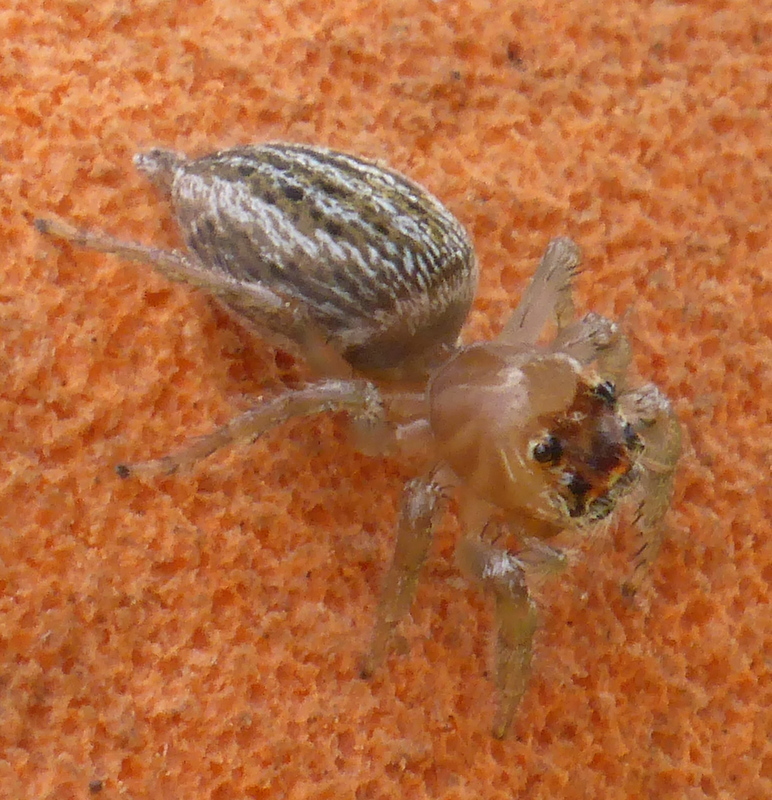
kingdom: Animalia
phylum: Arthropoda
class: Arachnida
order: Araneae
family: Salticidae
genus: Colonus
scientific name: Colonus sylvanus
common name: Jumping spiders
